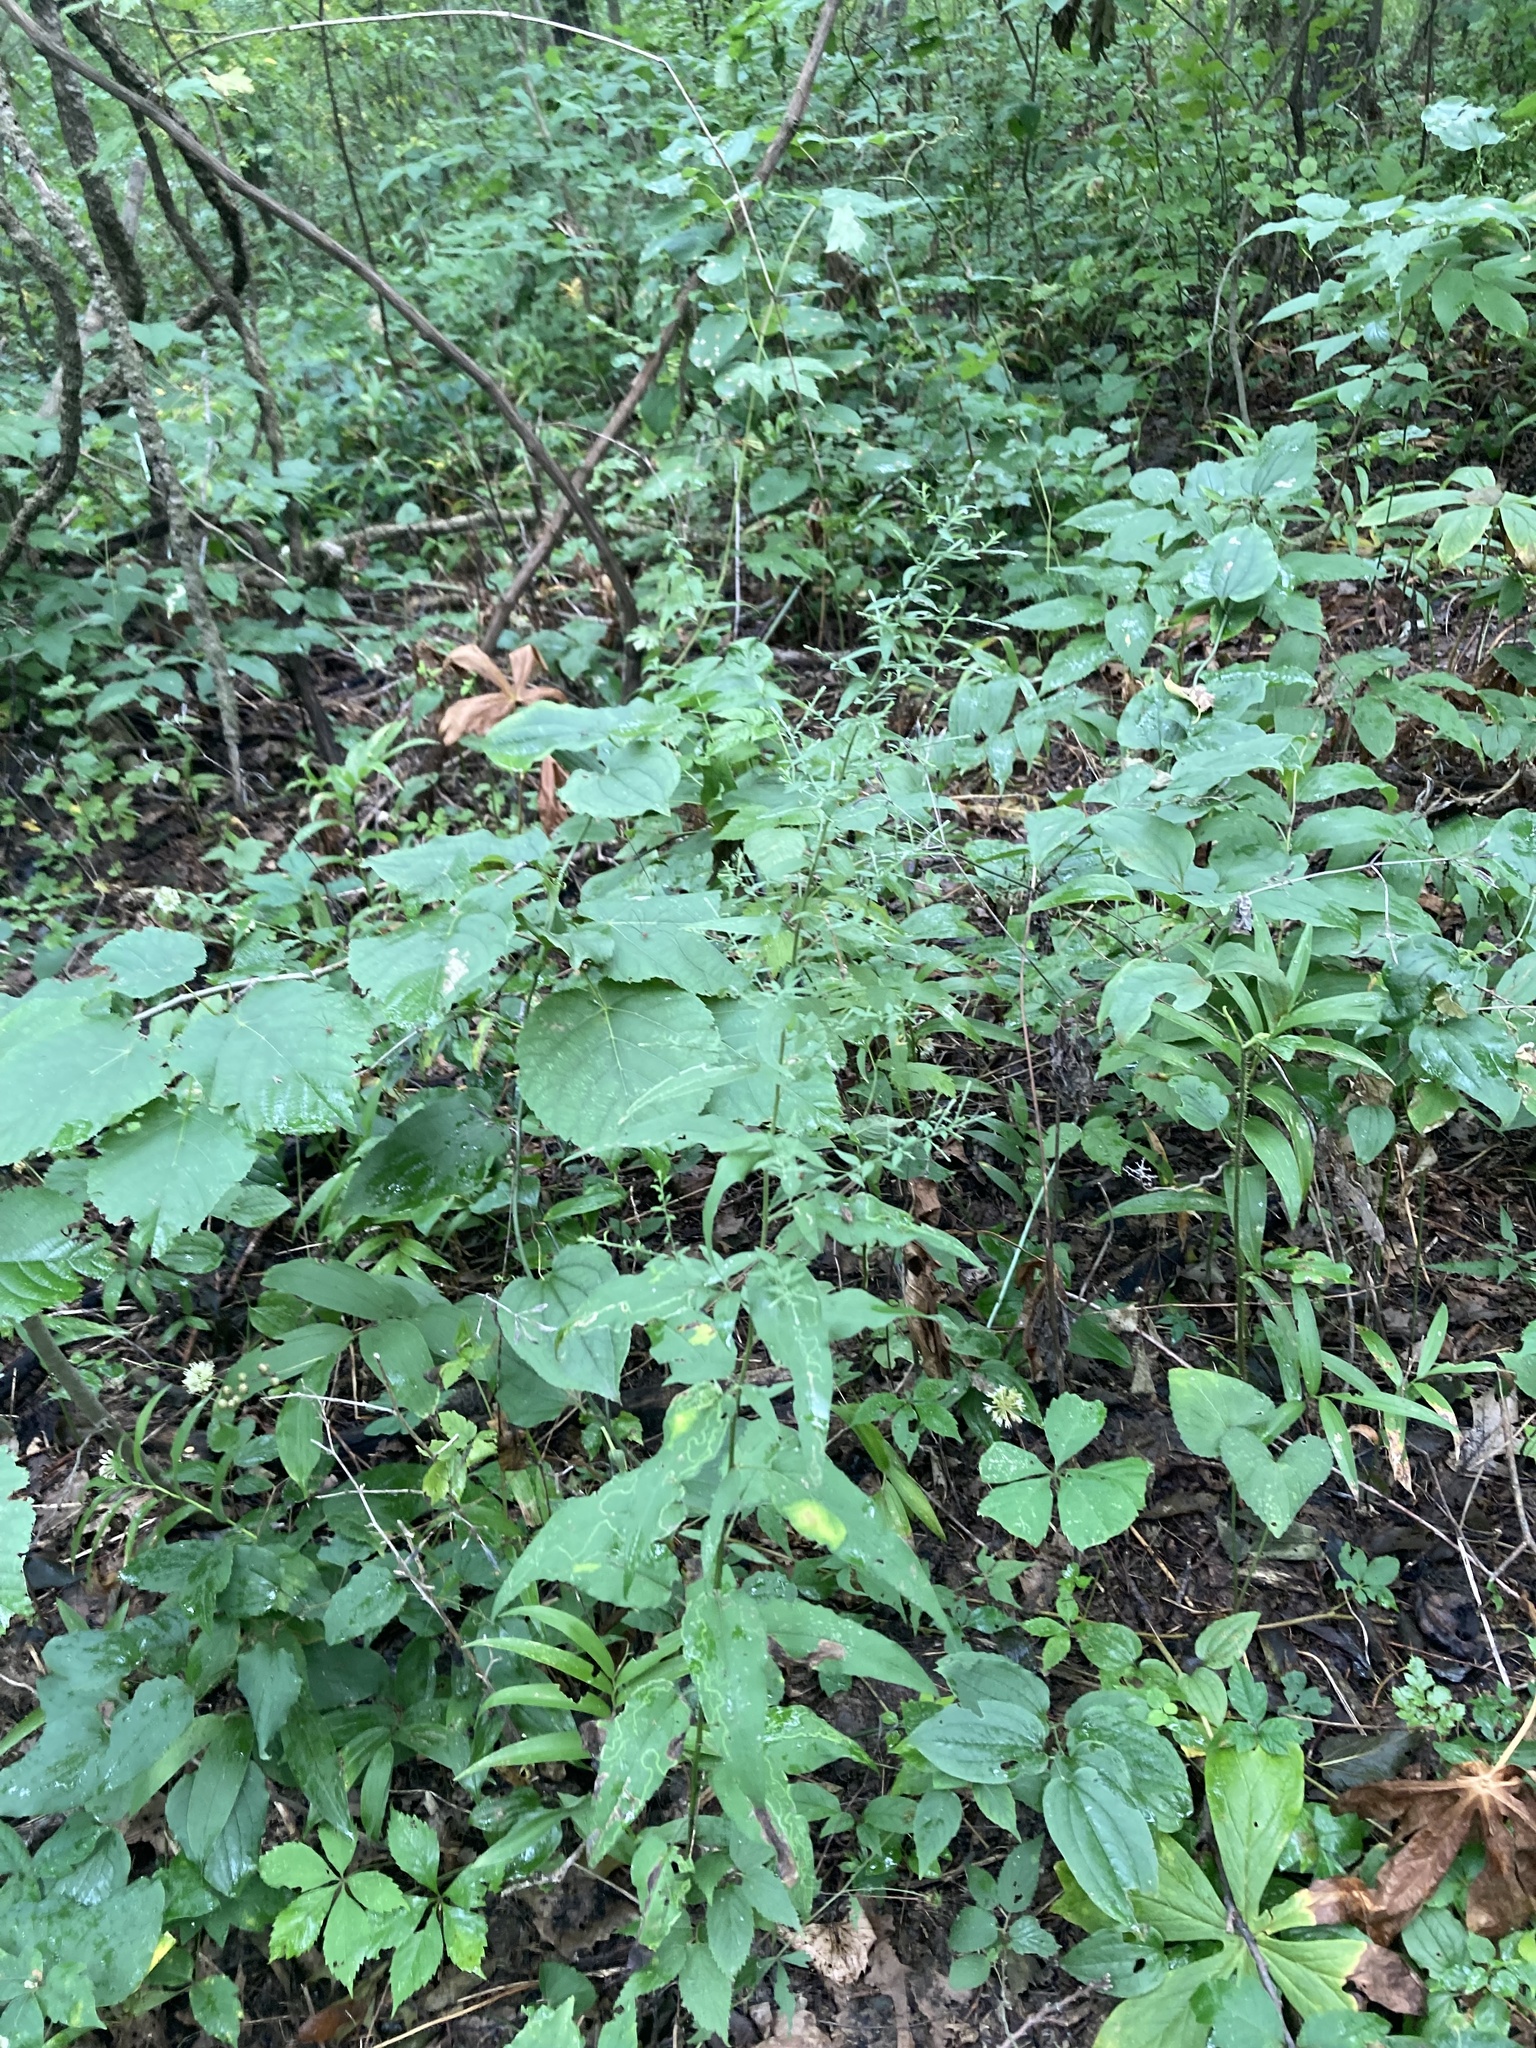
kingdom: Plantae
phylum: Tracheophyta
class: Magnoliopsida
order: Asterales
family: Asteraceae
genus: Symphyotrichum
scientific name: Symphyotrichum shortii
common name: Short's aster
